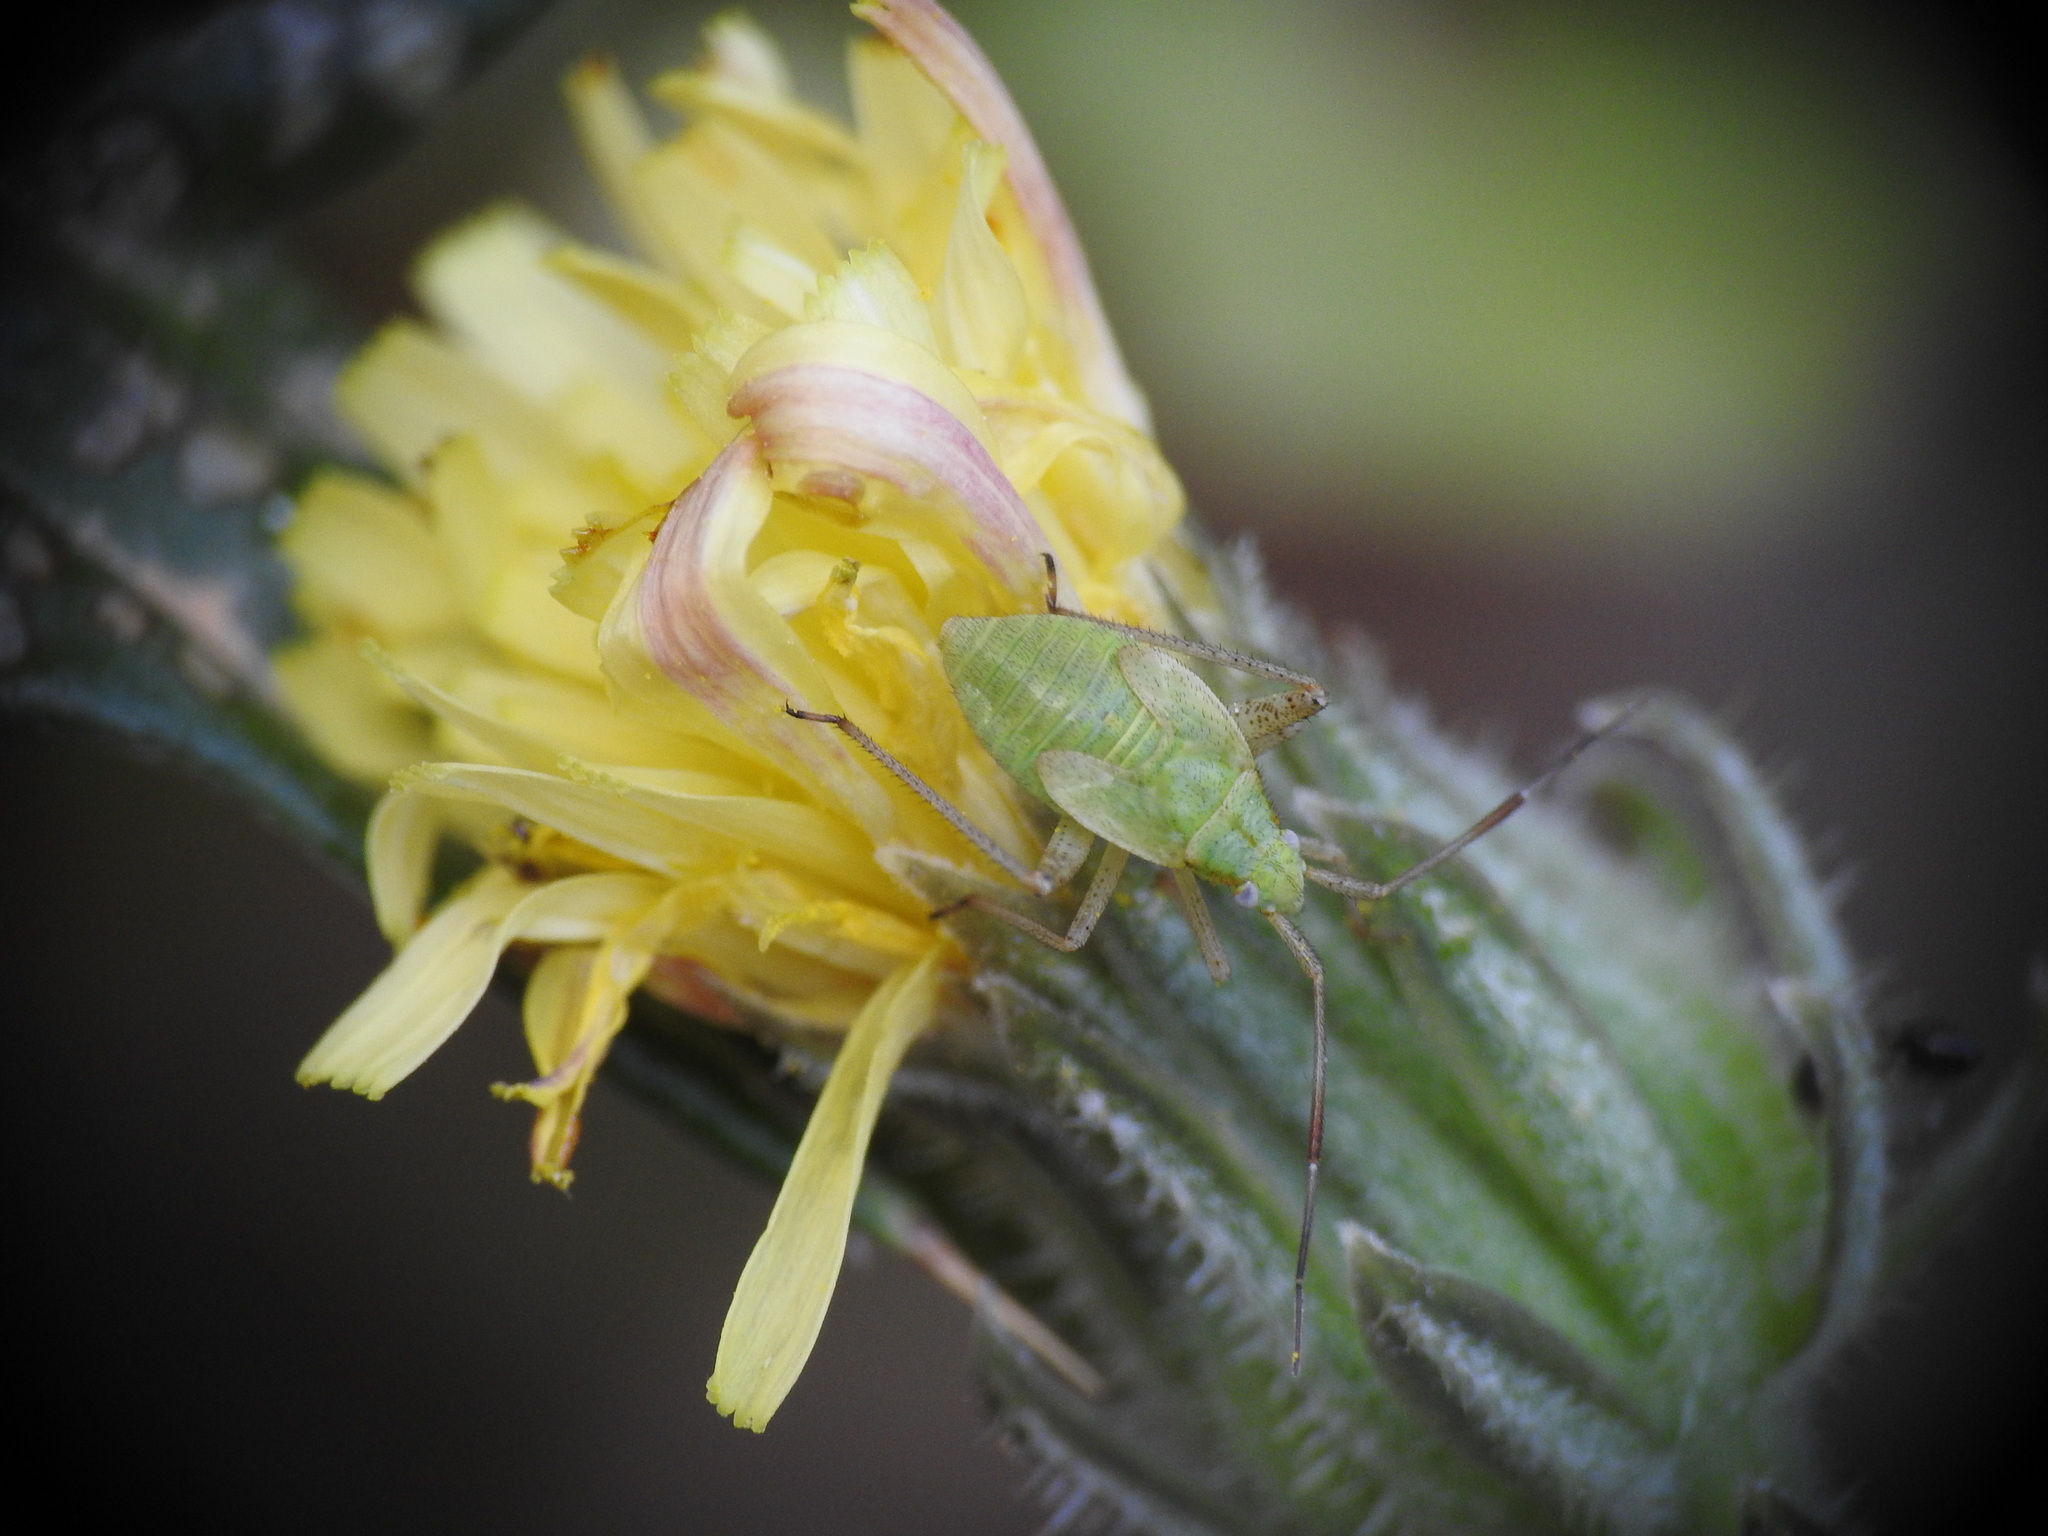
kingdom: Animalia
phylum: Arthropoda
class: Insecta
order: Hemiptera
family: Miridae
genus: Closterotomus
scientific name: Closterotomus norvegicus
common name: Plant bug
